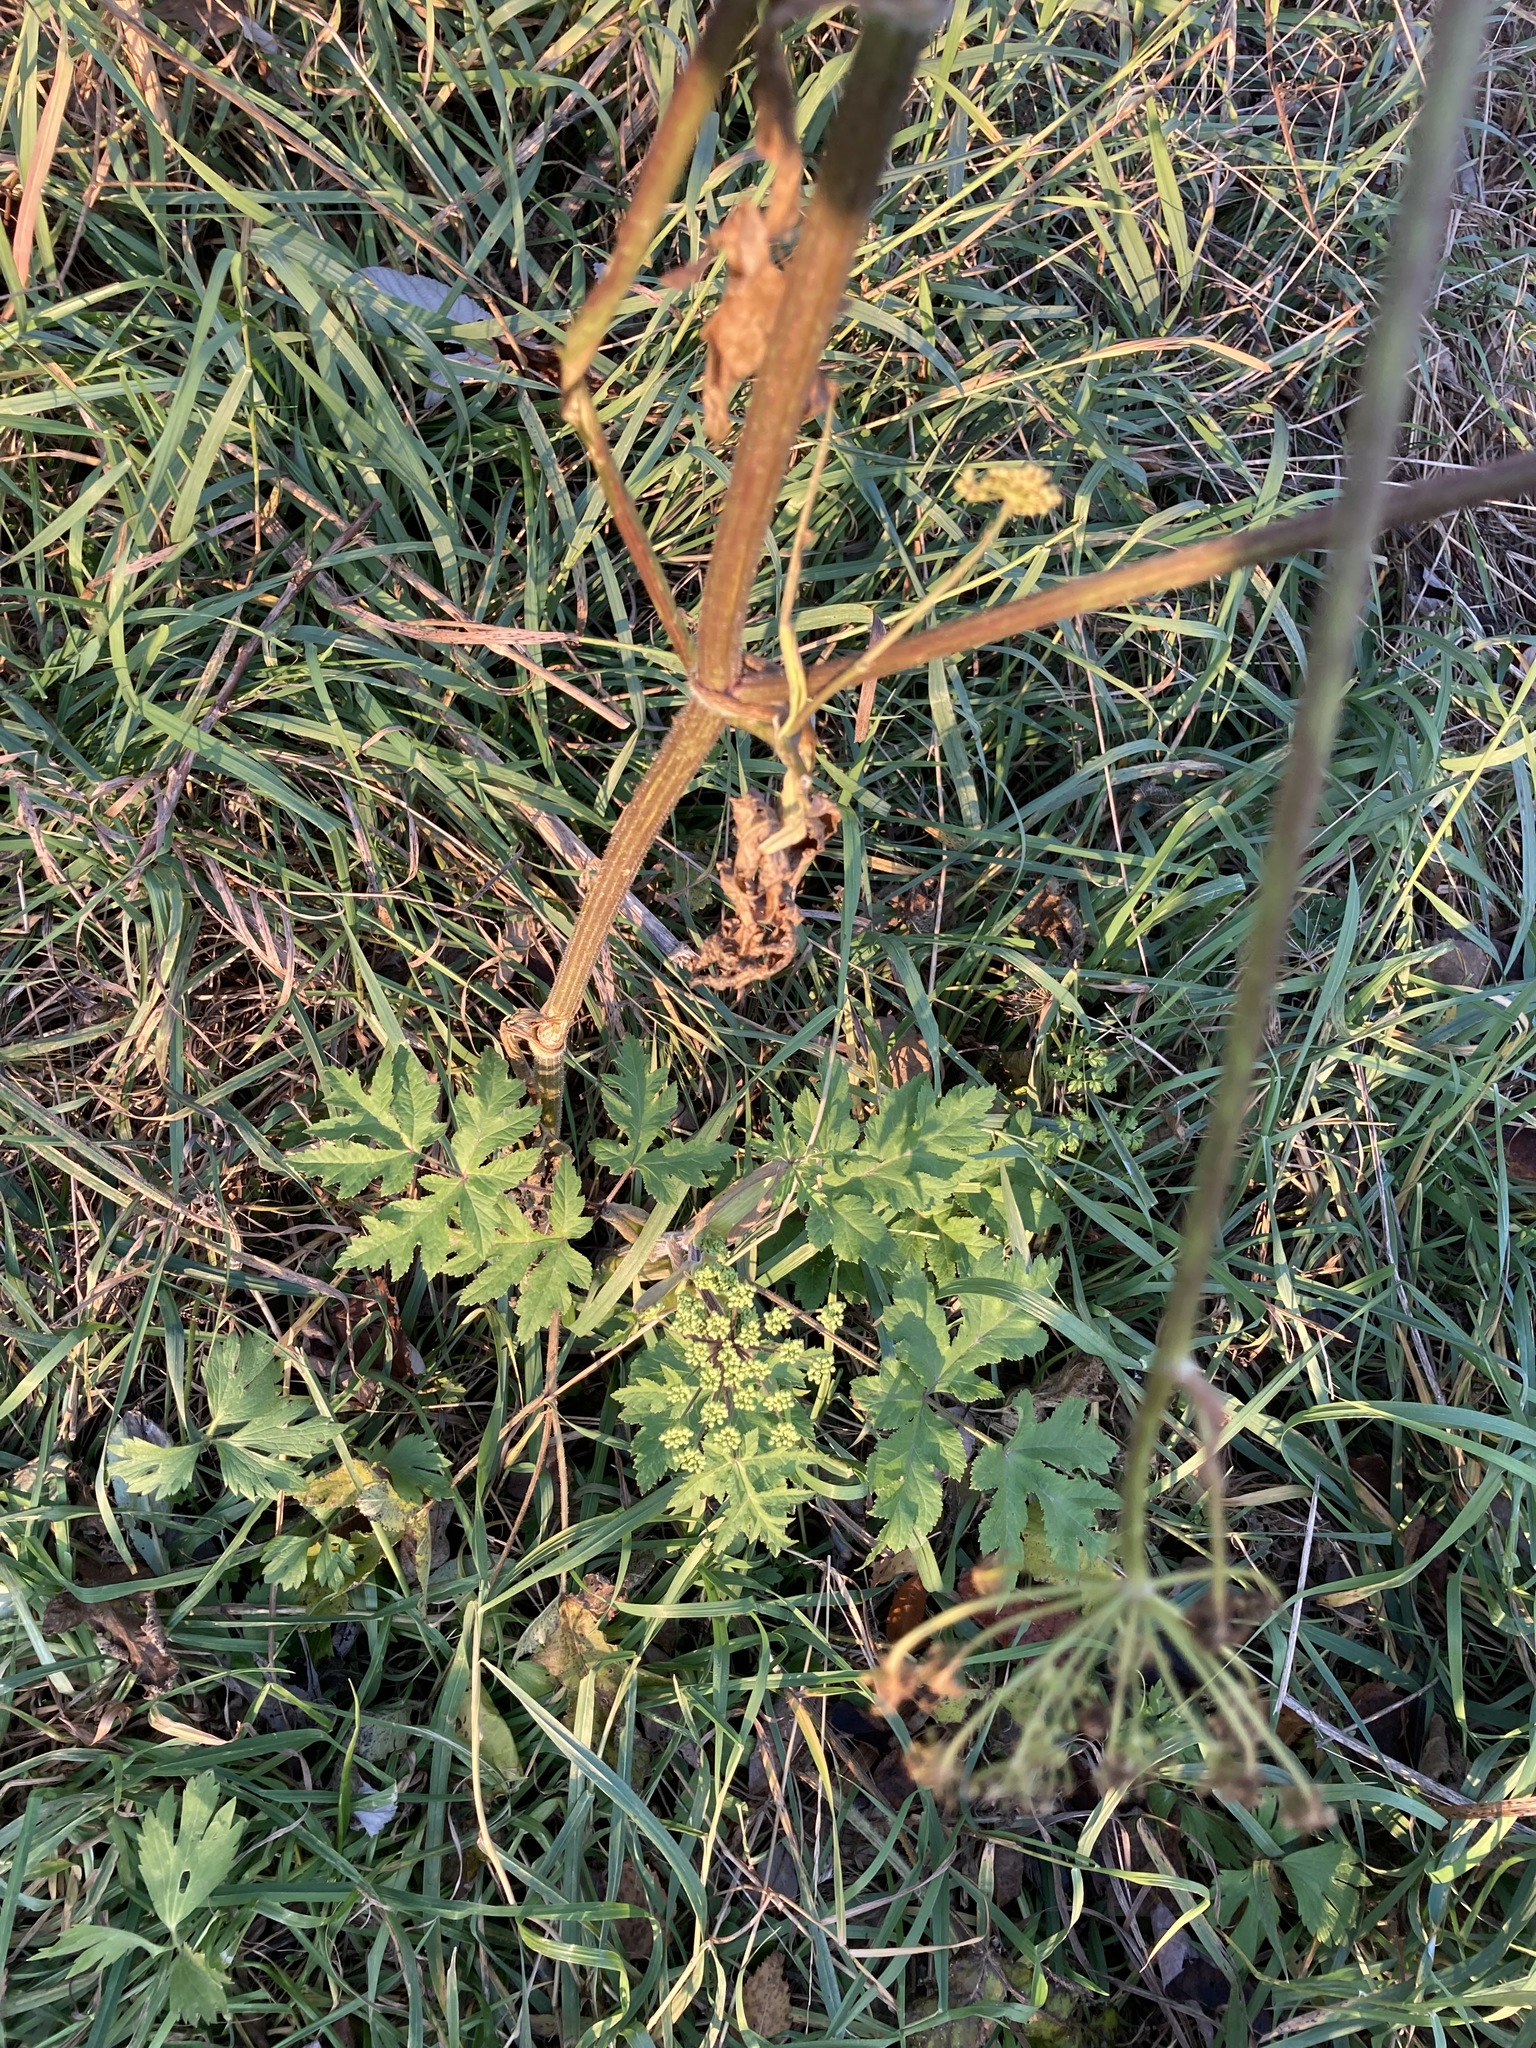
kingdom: Plantae
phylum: Tracheophyta
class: Magnoliopsida
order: Apiales
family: Apiaceae
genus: Heracleum
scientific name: Heracleum sphondylium
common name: Hogweed
